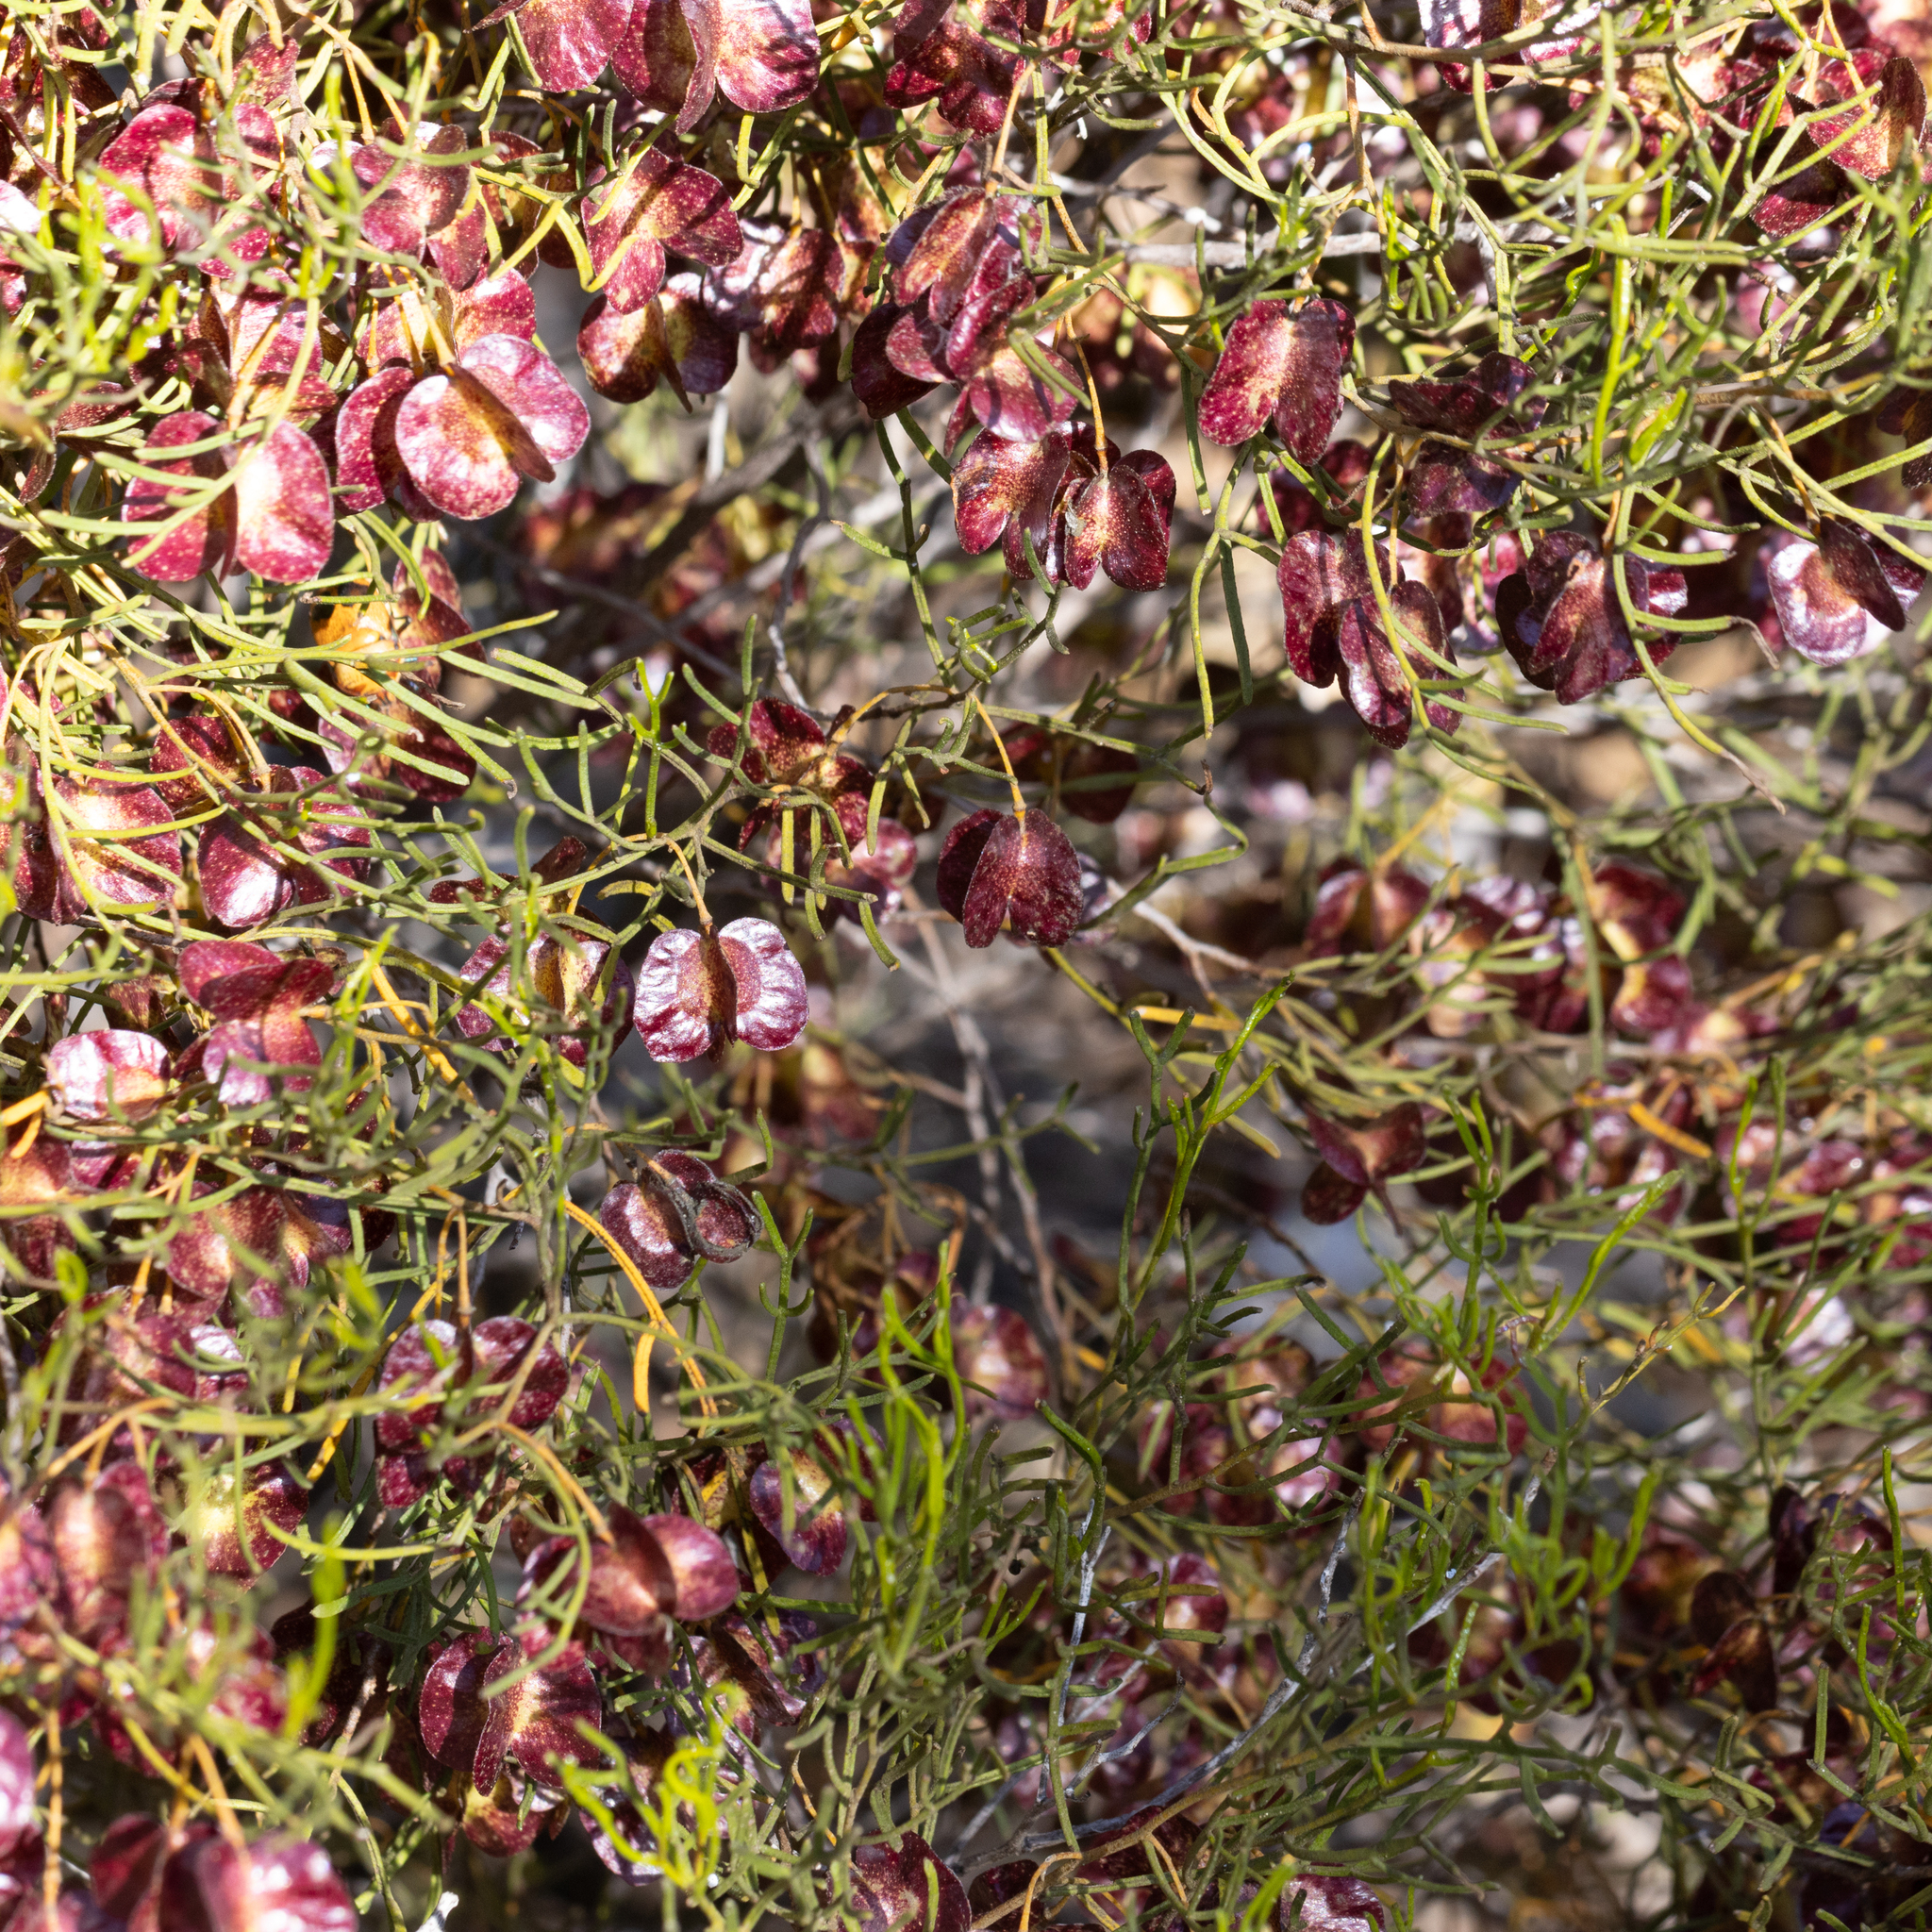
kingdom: Plantae
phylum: Tracheophyta
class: Magnoliopsida
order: Sapindales
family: Sapindaceae
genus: Dodonaea
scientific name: Dodonaea stenozyga
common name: Desert hopbush
